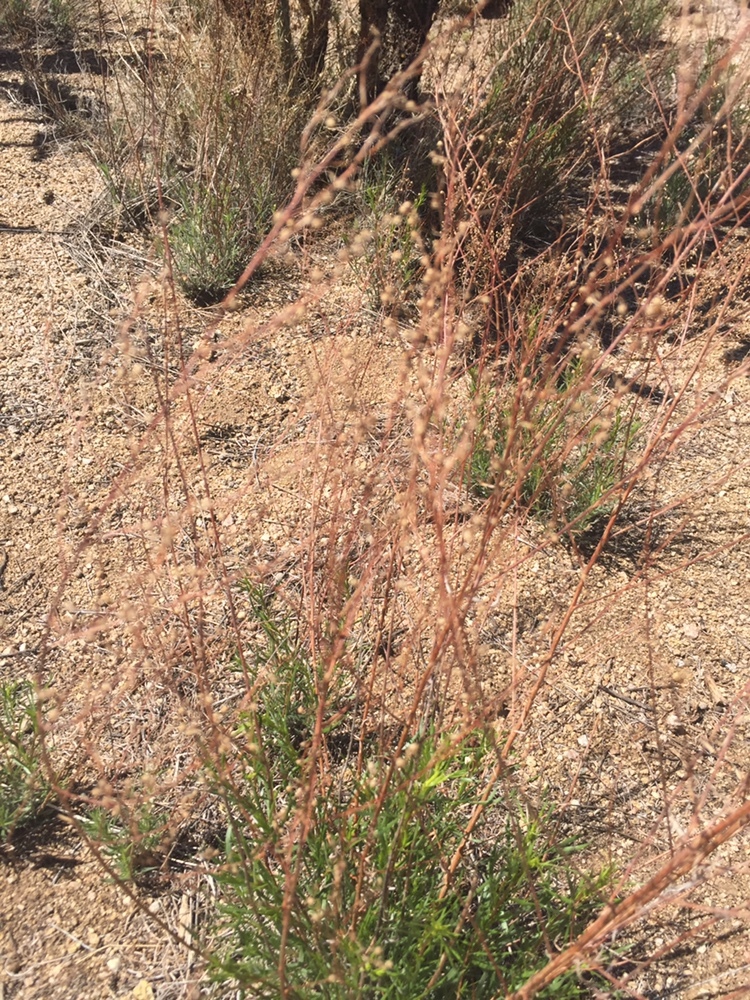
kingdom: Plantae
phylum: Tracheophyta
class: Magnoliopsida
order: Asterales
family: Asteraceae
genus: Artemisia
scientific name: Artemisia dracunculus
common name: Tarragon
